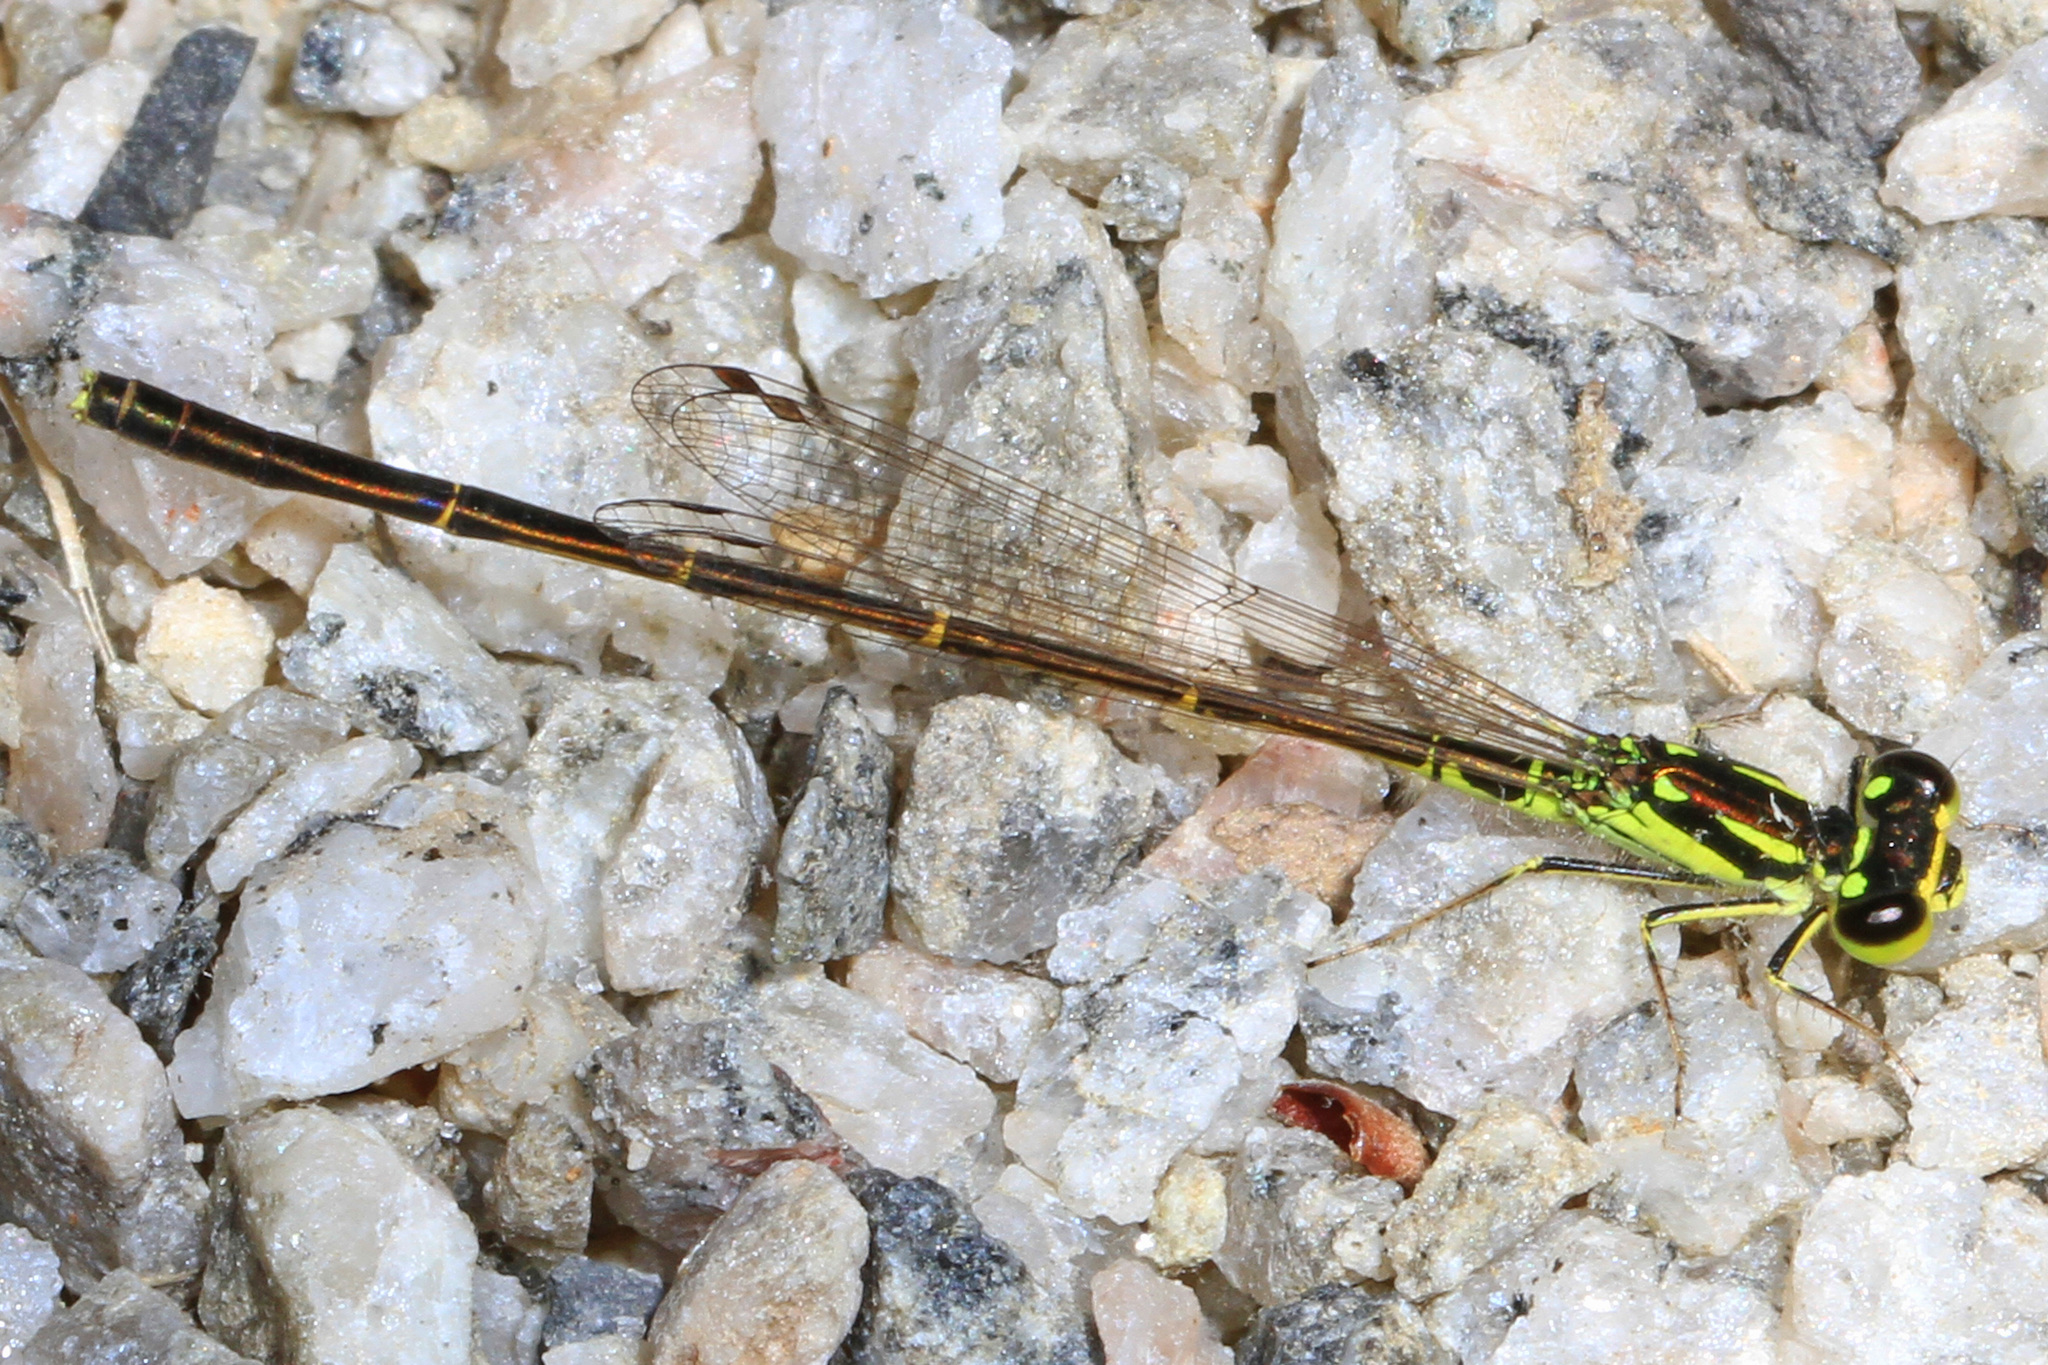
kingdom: Animalia
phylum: Arthropoda
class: Insecta
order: Odonata
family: Coenagrionidae
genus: Ischnura
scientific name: Ischnura posita
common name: Fragile forktail
